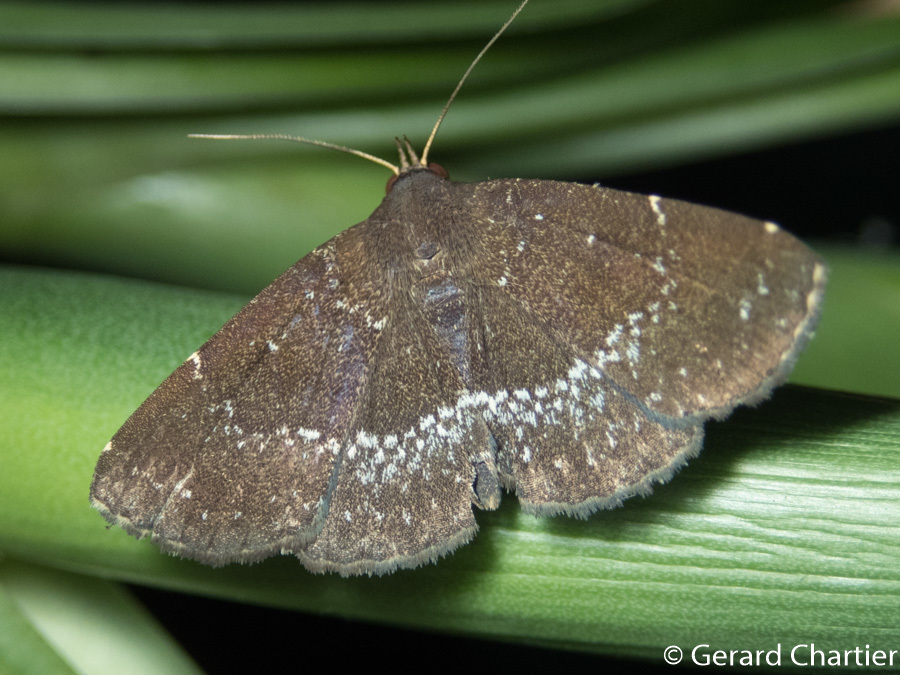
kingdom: Animalia
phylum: Arthropoda
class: Insecta
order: Lepidoptera
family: Erebidae
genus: Adrapsa
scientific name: Adrapsa geometroides
